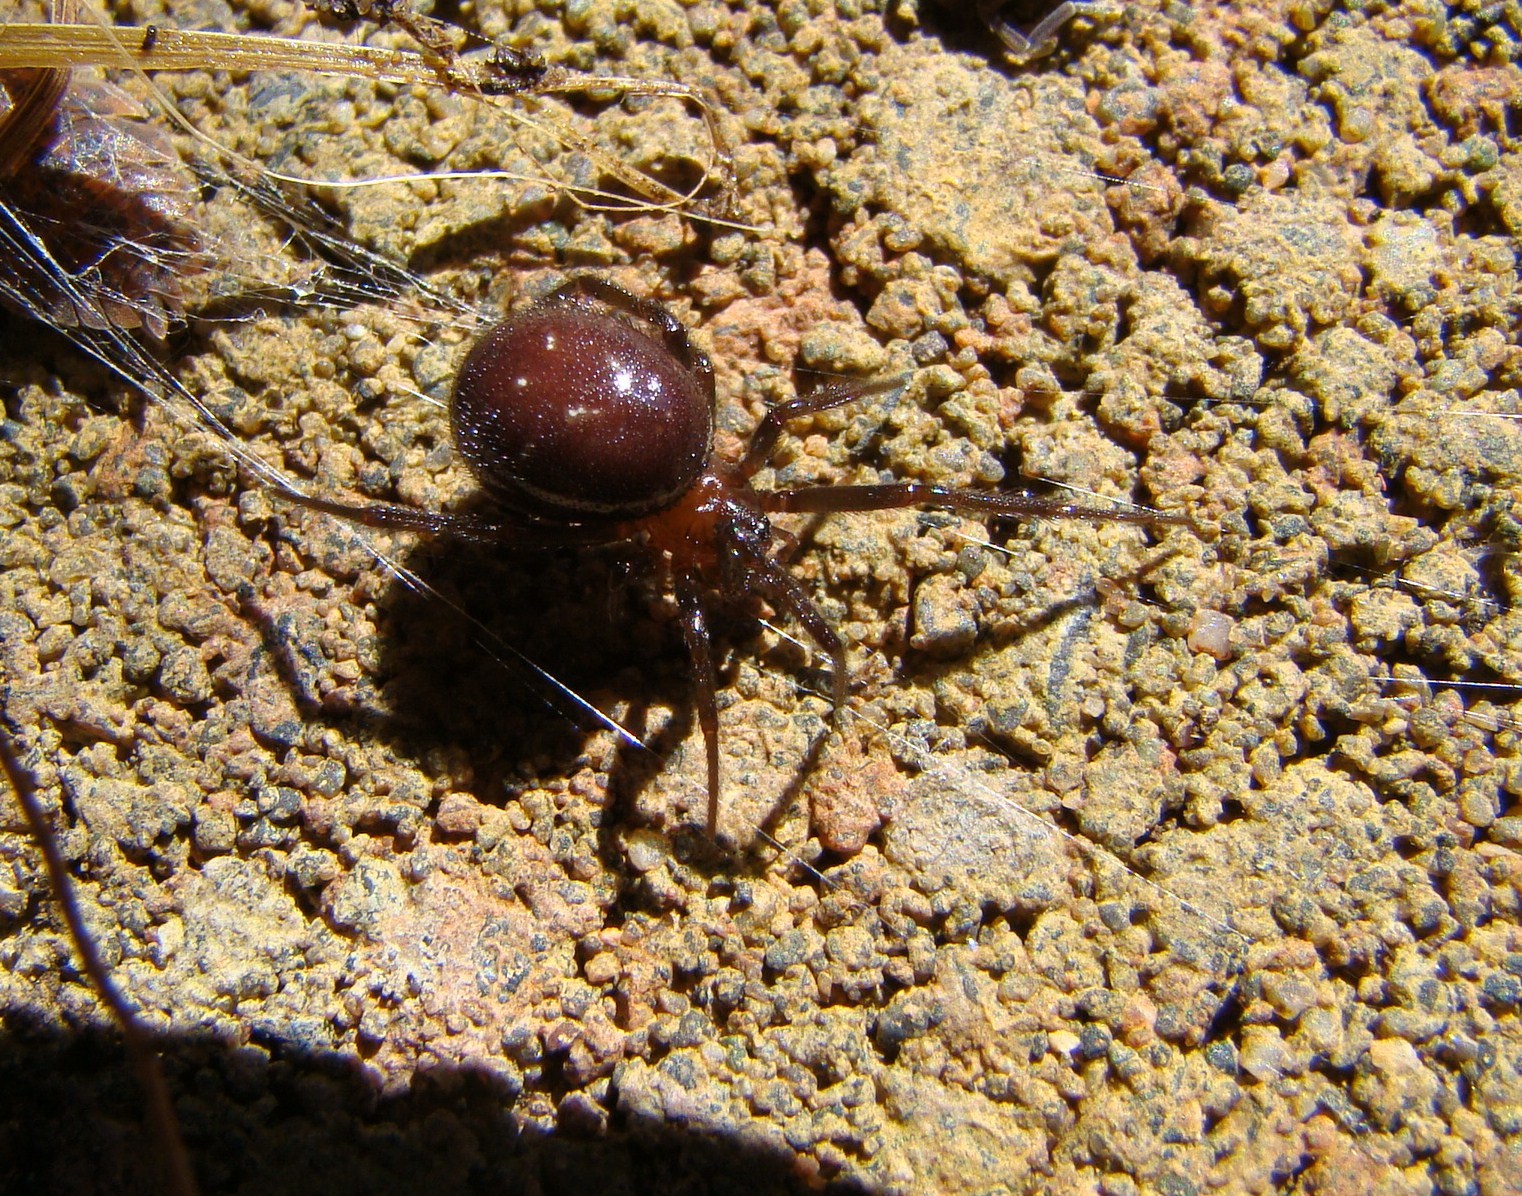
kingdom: Animalia
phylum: Arthropoda
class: Arachnida
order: Araneae
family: Theridiidae
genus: Steatoda
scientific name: Steatoda capensis
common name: Cobweb weaver
